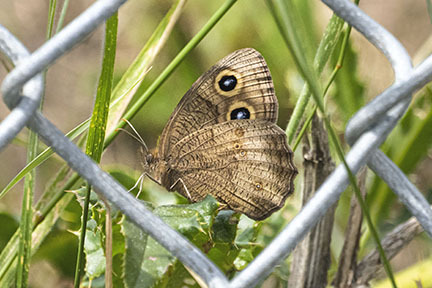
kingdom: Animalia
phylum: Arthropoda
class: Insecta
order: Lepidoptera
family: Nymphalidae
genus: Cercyonis
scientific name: Cercyonis pegala
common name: Common wood-nymph
